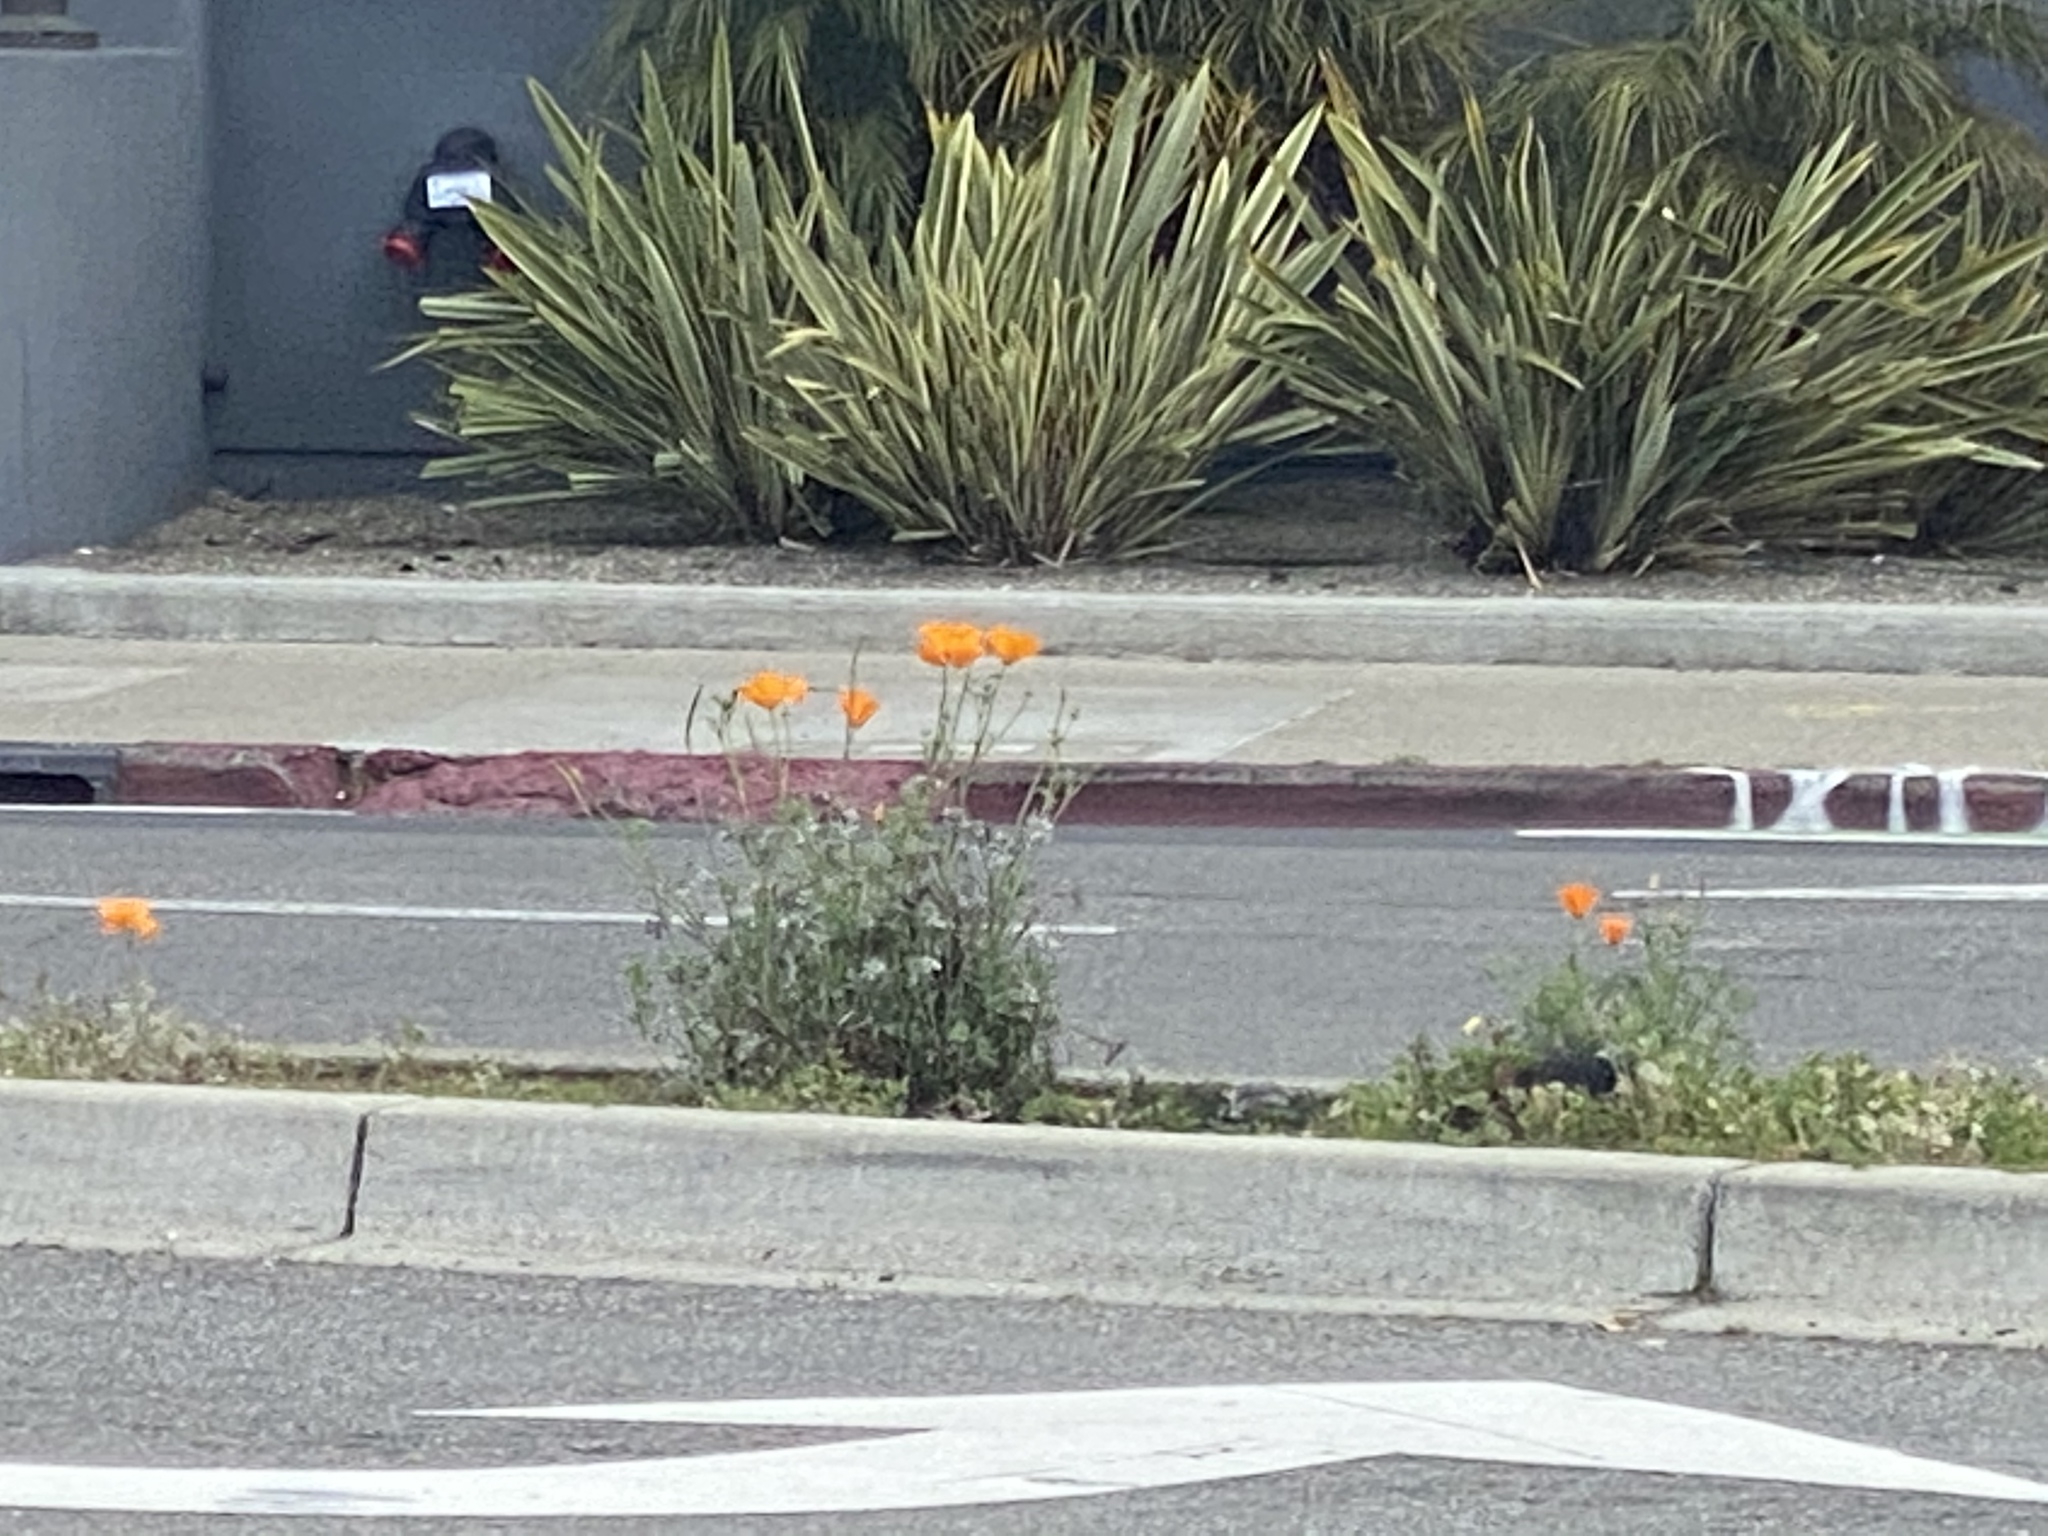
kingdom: Plantae
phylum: Tracheophyta
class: Magnoliopsida
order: Ranunculales
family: Papaveraceae
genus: Eschscholzia
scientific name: Eschscholzia californica
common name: California poppy
